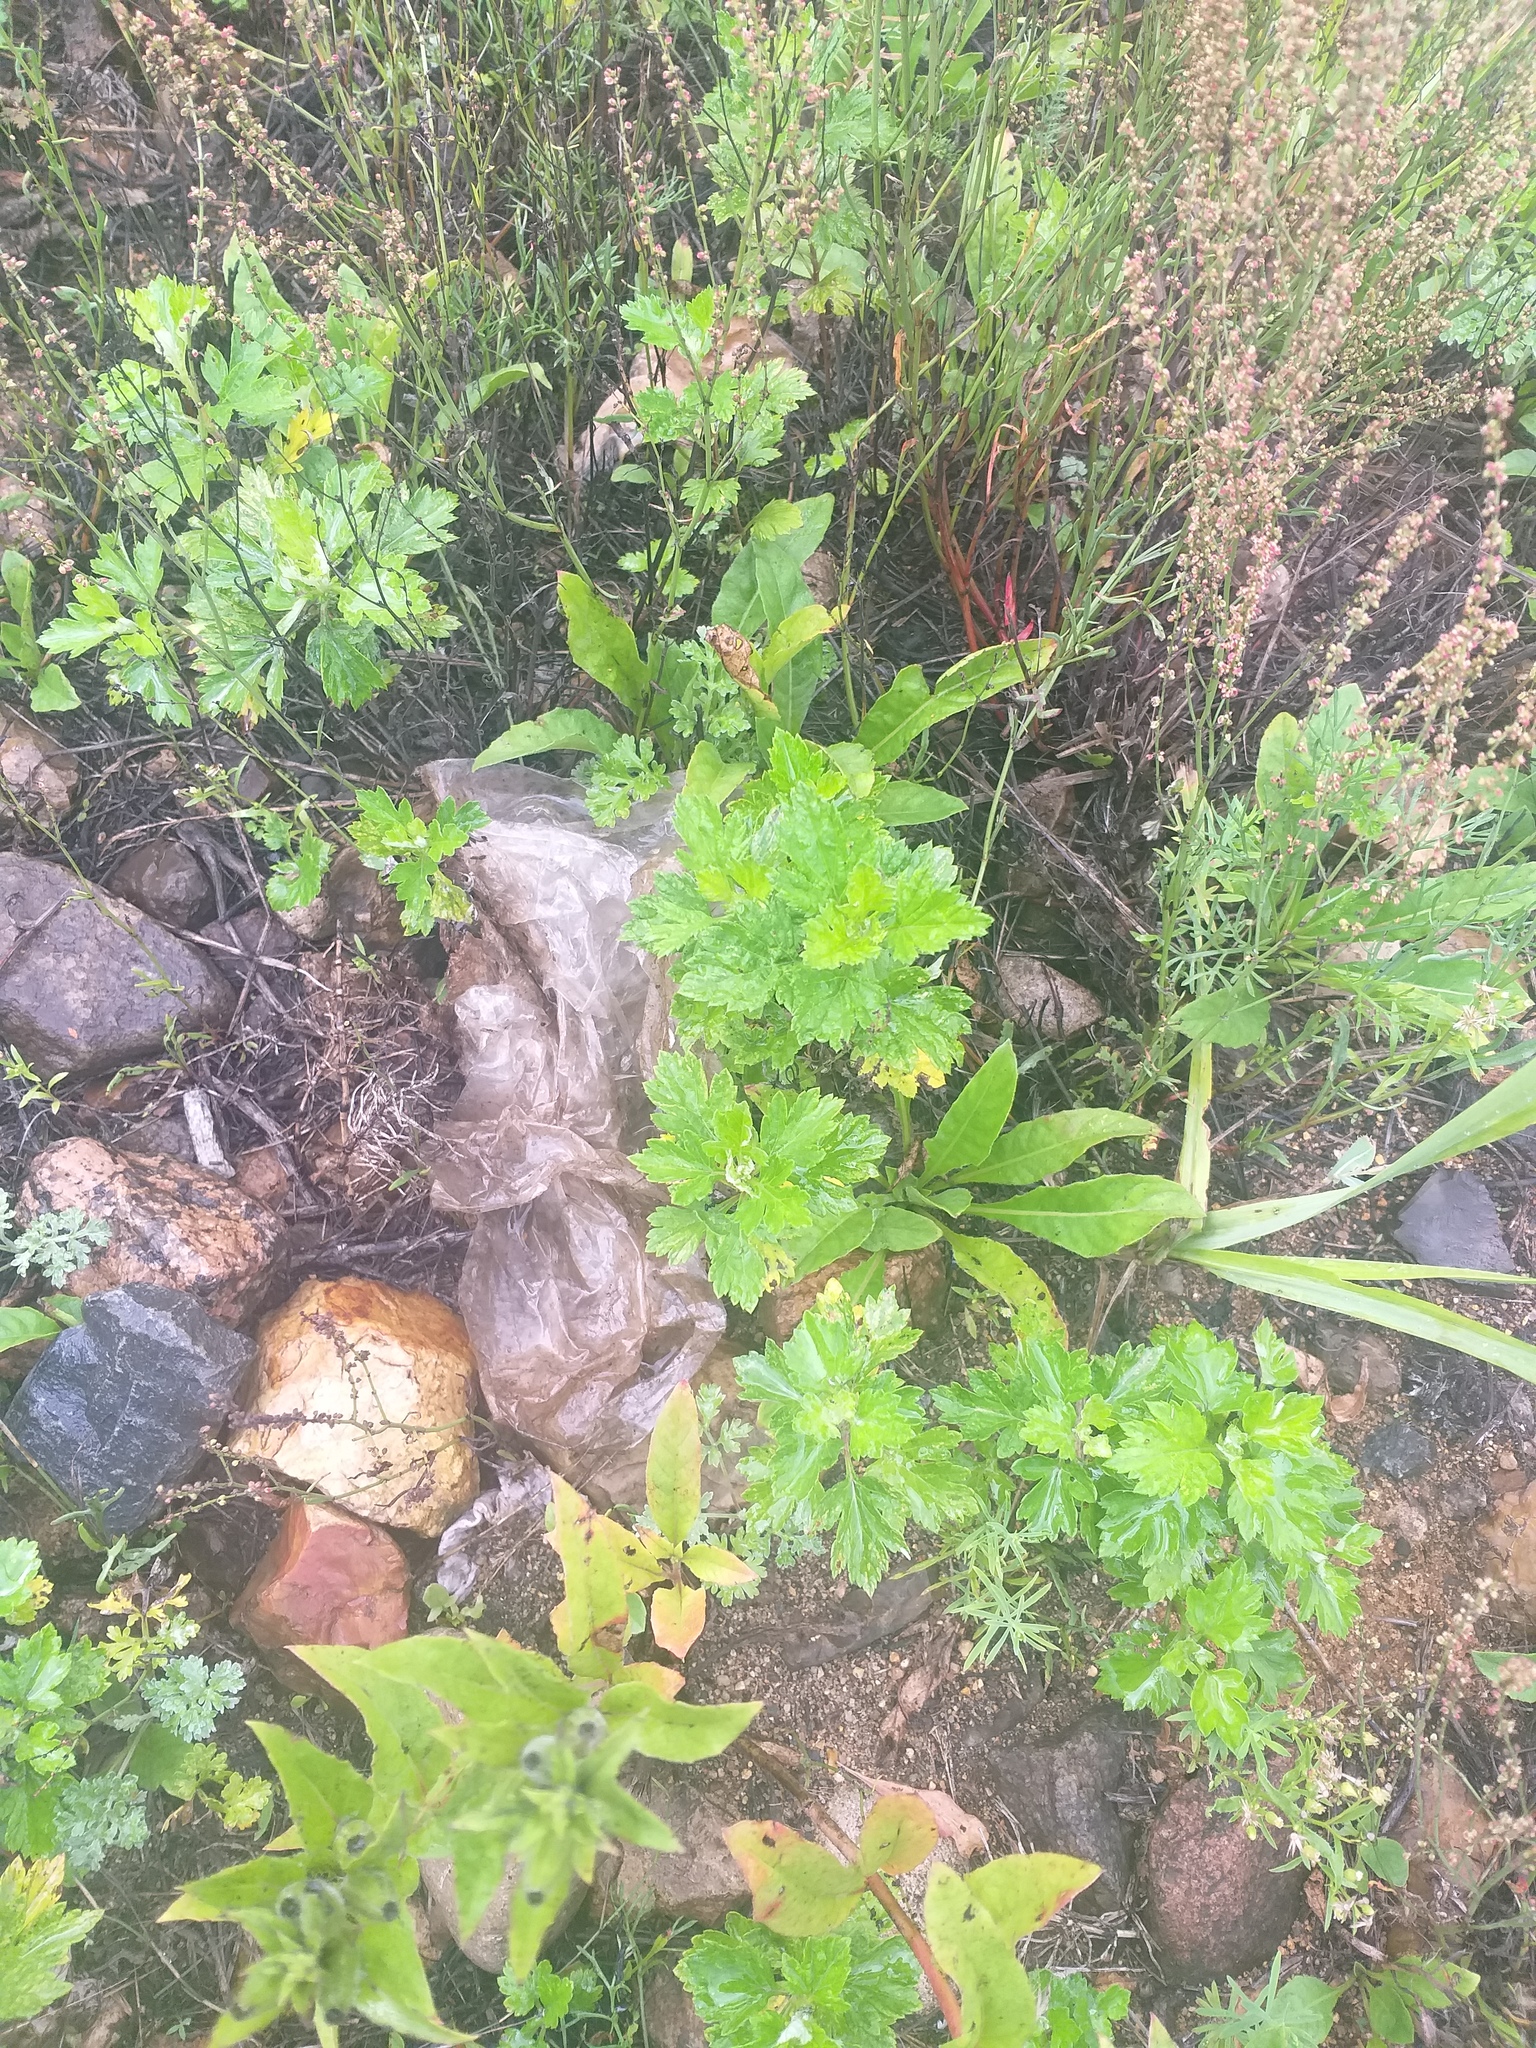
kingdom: Plantae
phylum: Tracheophyta
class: Magnoliopsida
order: Asterales
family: Asteraceae
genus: Artemisia
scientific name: Artemisia vulgaris
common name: Mugwort
